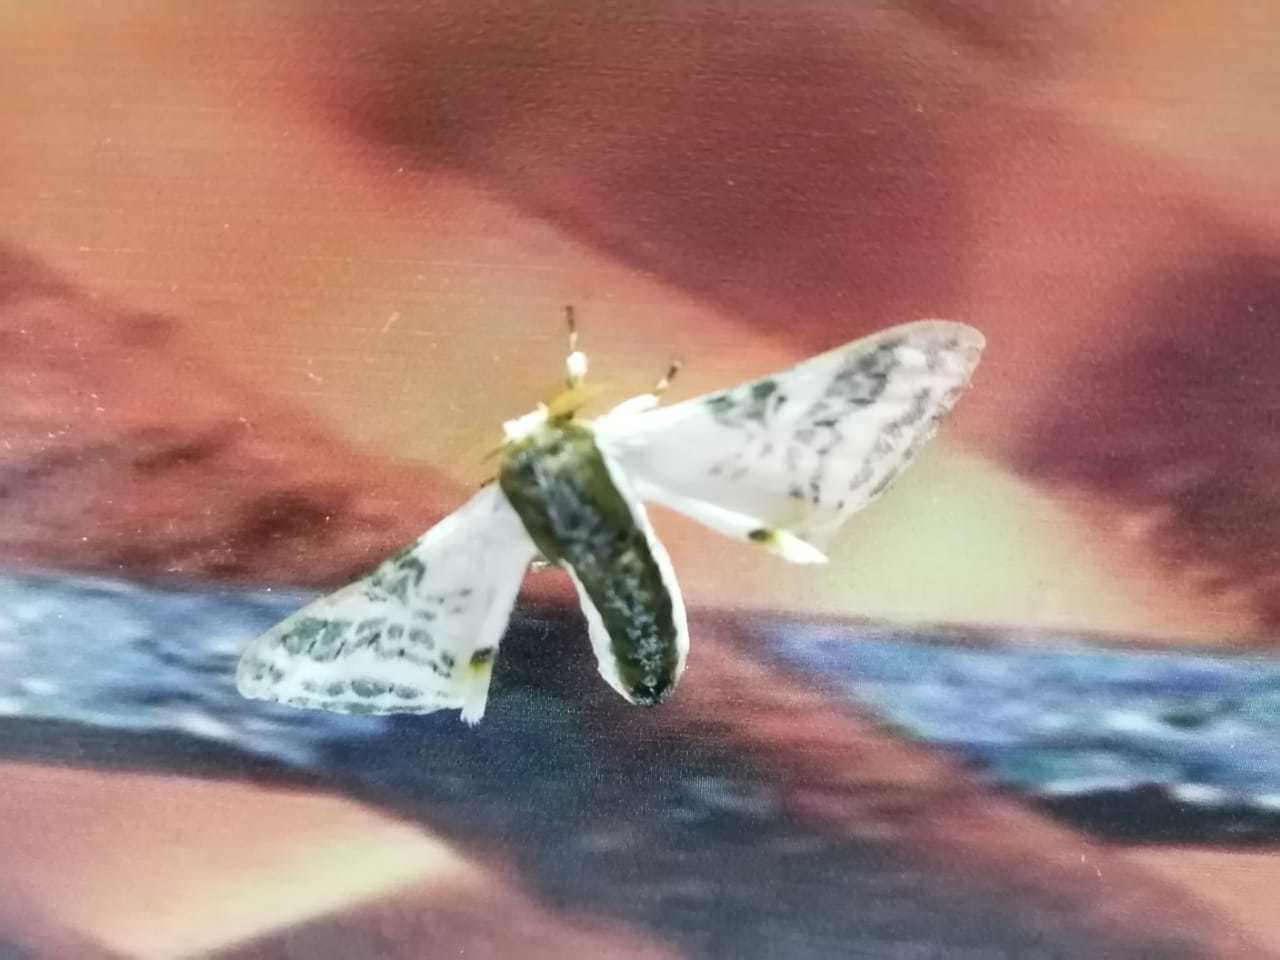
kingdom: Animalia
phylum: Arthropoda
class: Insecta
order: Lepidoptera
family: Bombycidae
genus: Colla
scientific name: Colla rhodope
